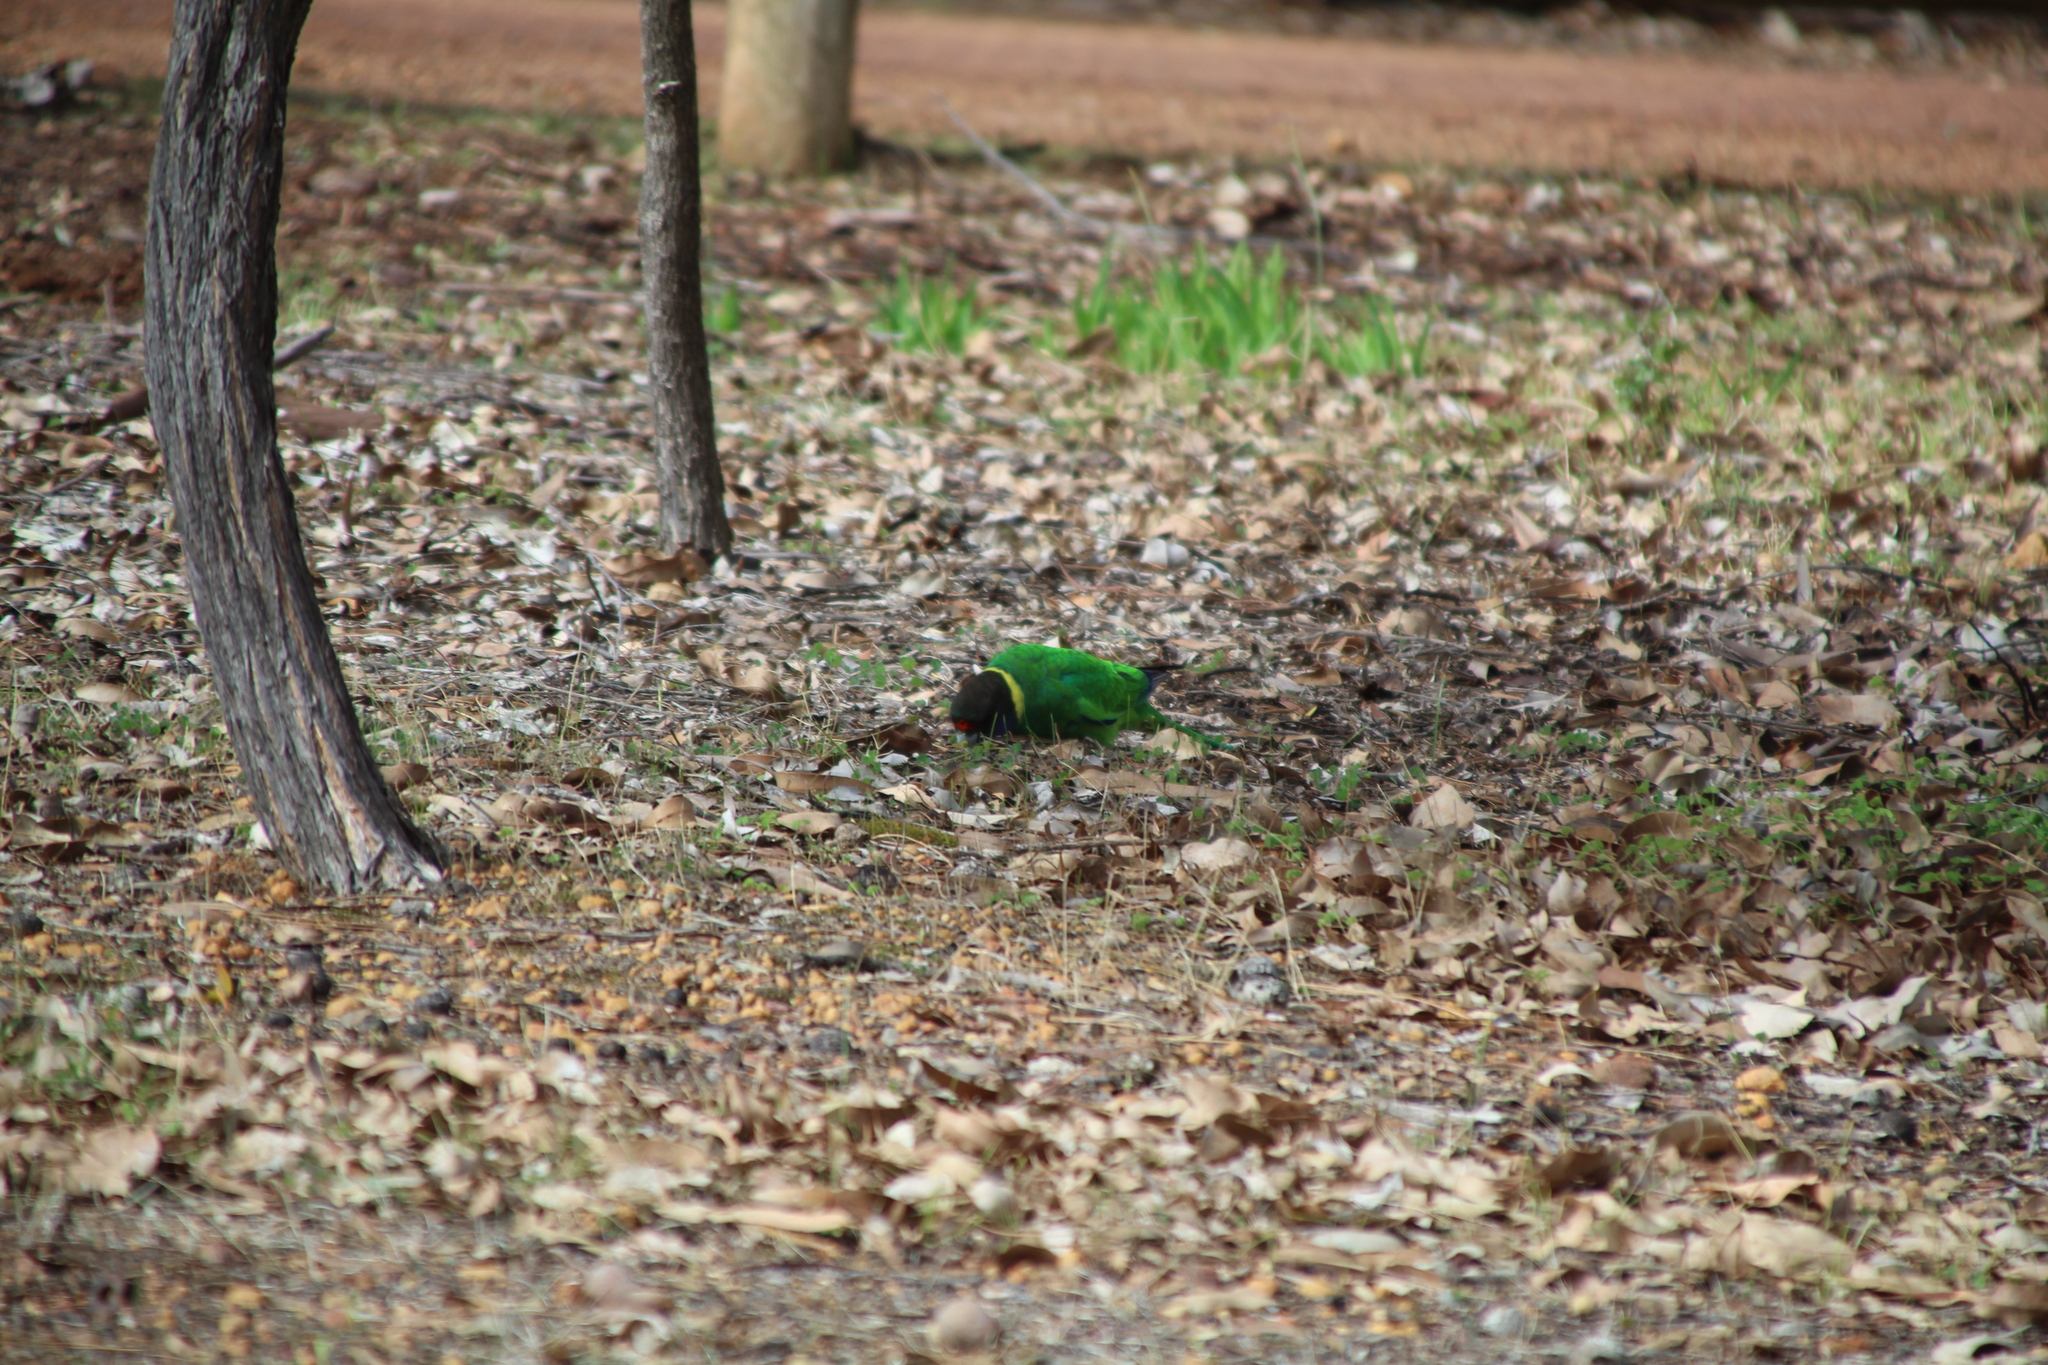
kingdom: Animalia
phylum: Chordata
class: Aves
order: Psittaciformes
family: Psittacidae
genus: Barnardius
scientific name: Barnardius zonarius
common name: Australian ringneck
